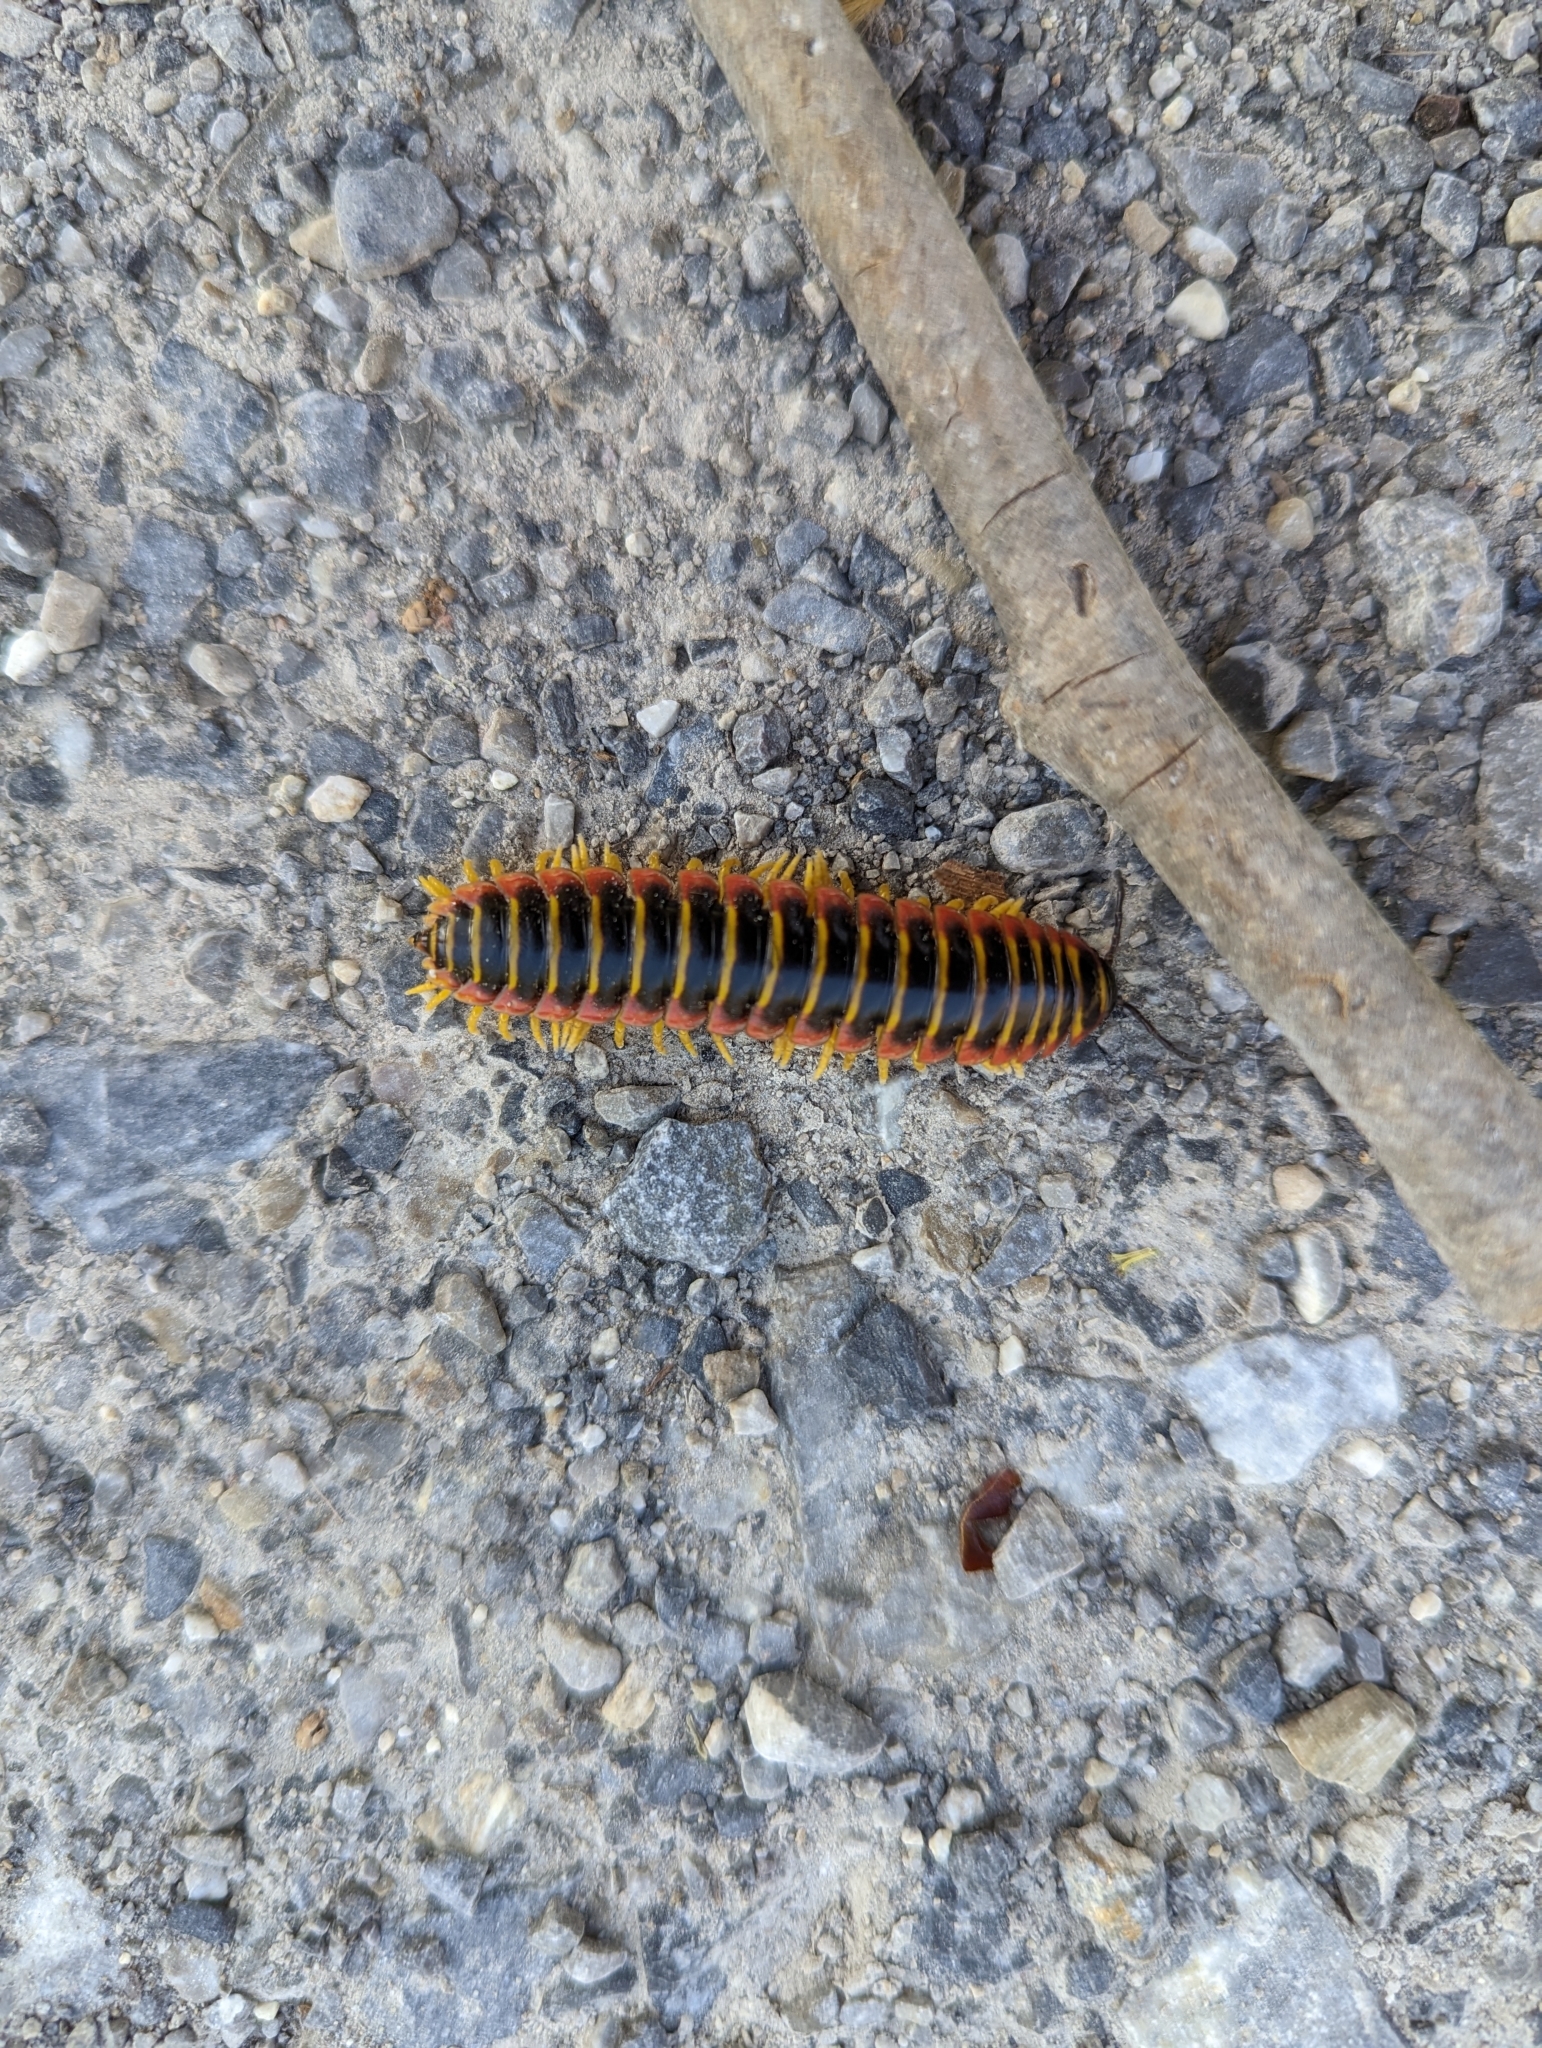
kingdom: Animalia
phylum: Arthropoda
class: Diplopoda
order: Polydesmida
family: Xystodesmidae
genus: Apheloria
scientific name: Apheloria virginiensis
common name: Black-and-gold flat millipede
